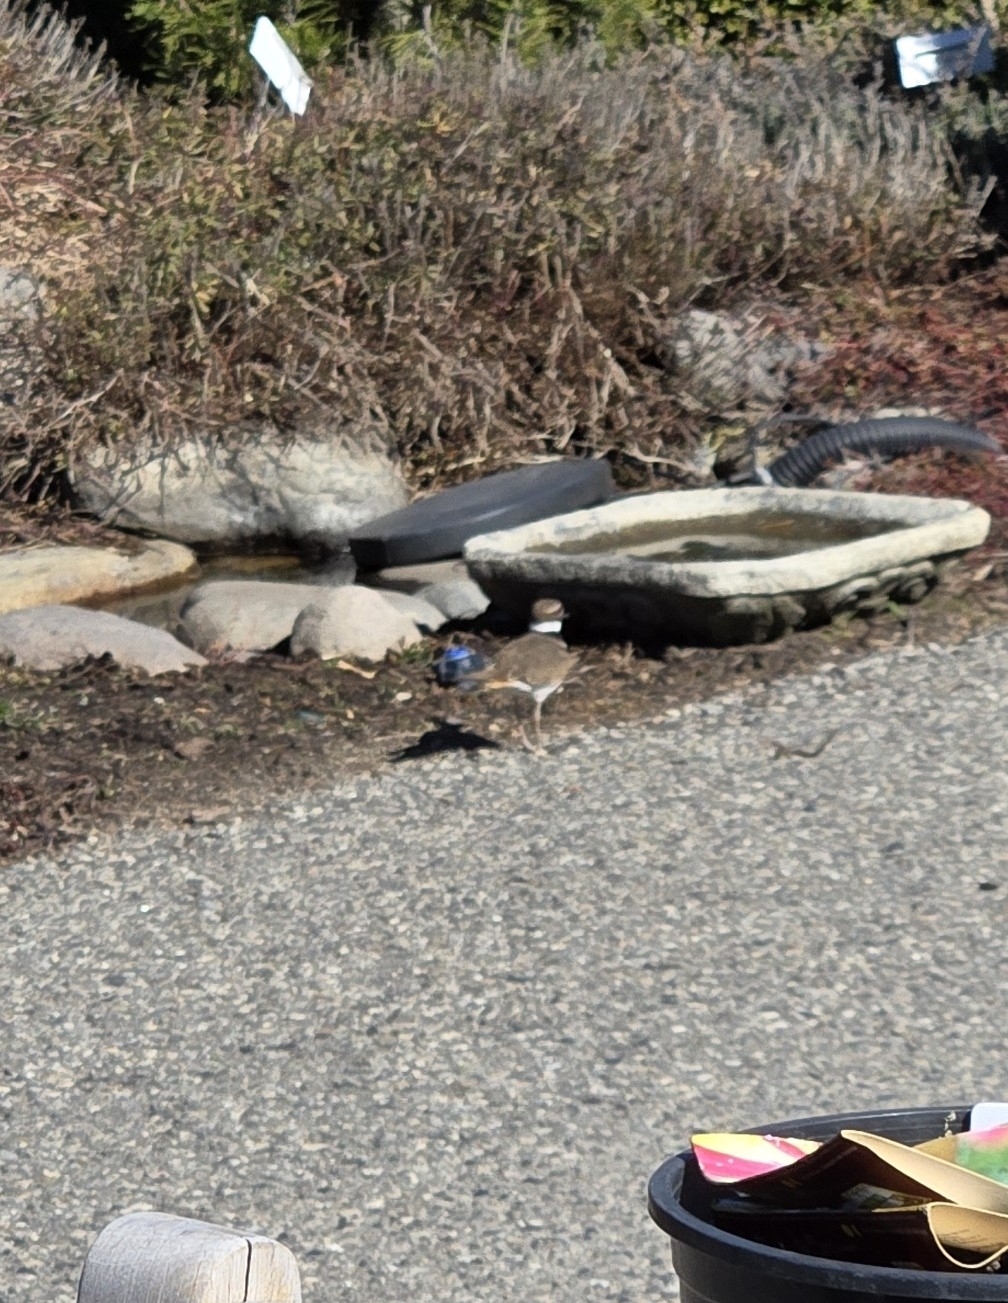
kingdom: Animalia
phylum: Chordata
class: Aves
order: Charadriiformes
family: Charadriidae
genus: Charadrius
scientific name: Charadrius vociferus
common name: Killdeer
